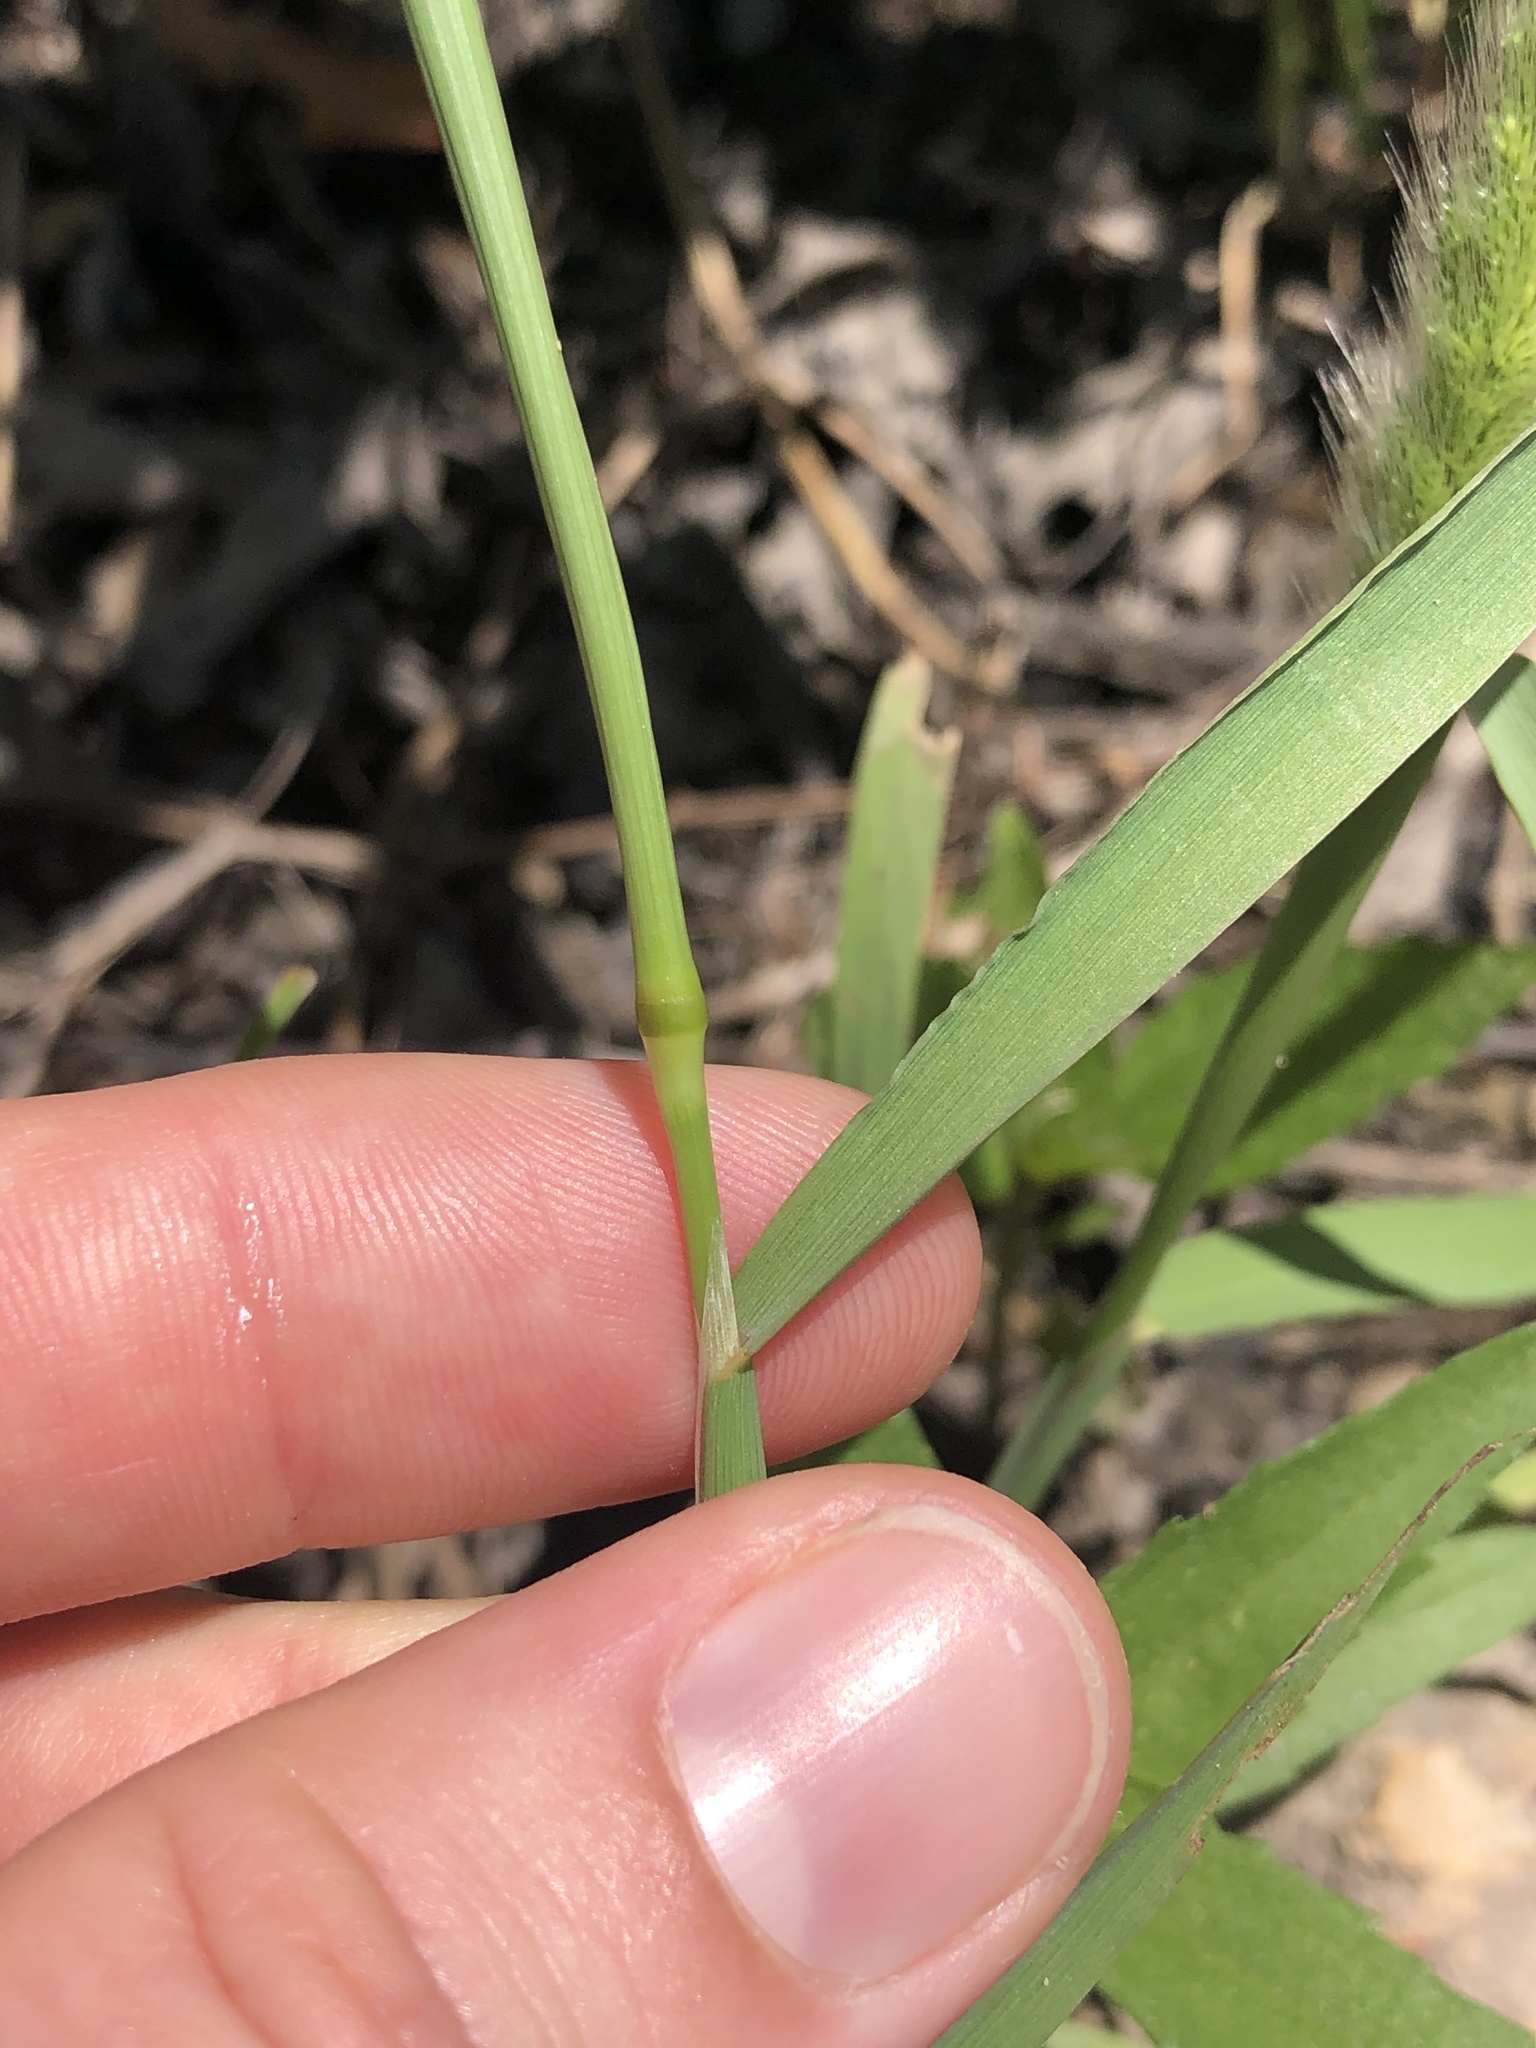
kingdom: Plantae
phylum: Tracheophyta
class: Liliopsida
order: Poales
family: Poaceae
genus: Polypogon
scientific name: Polypogon monspeliensis
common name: Annual rabbitsfoot grass
